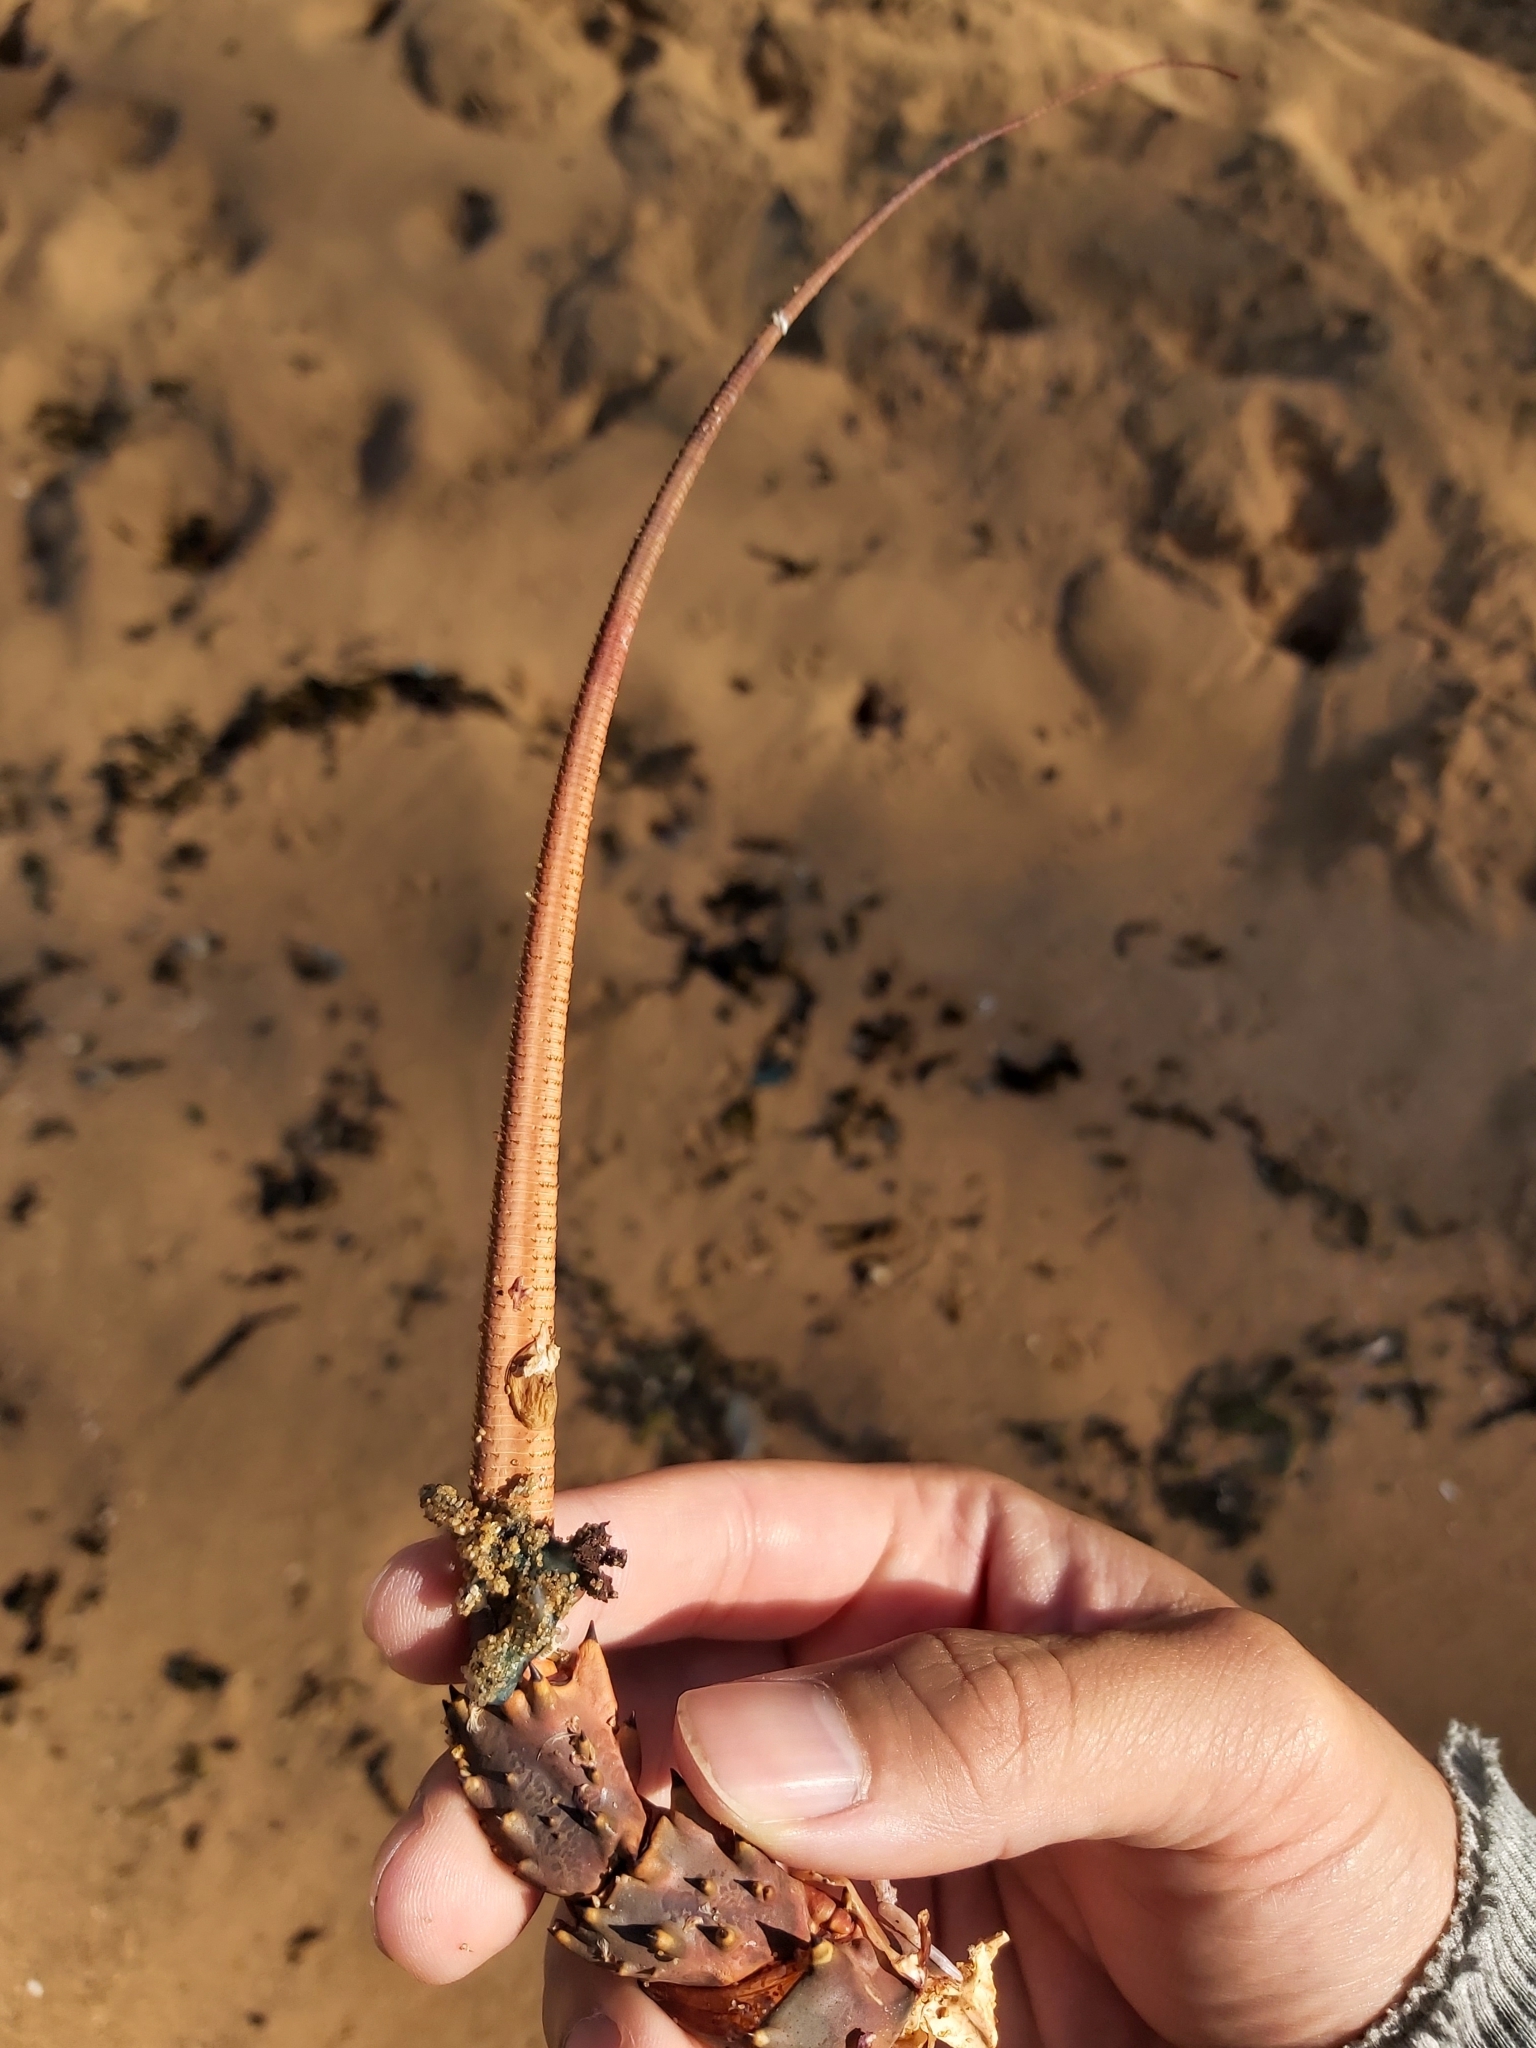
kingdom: Animalia
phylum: Arthropoda
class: Malacostraca
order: Decapoda
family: Palinuridae
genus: Sagmariasus
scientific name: Sagmariasus verreauxi
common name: Green rock lobster
